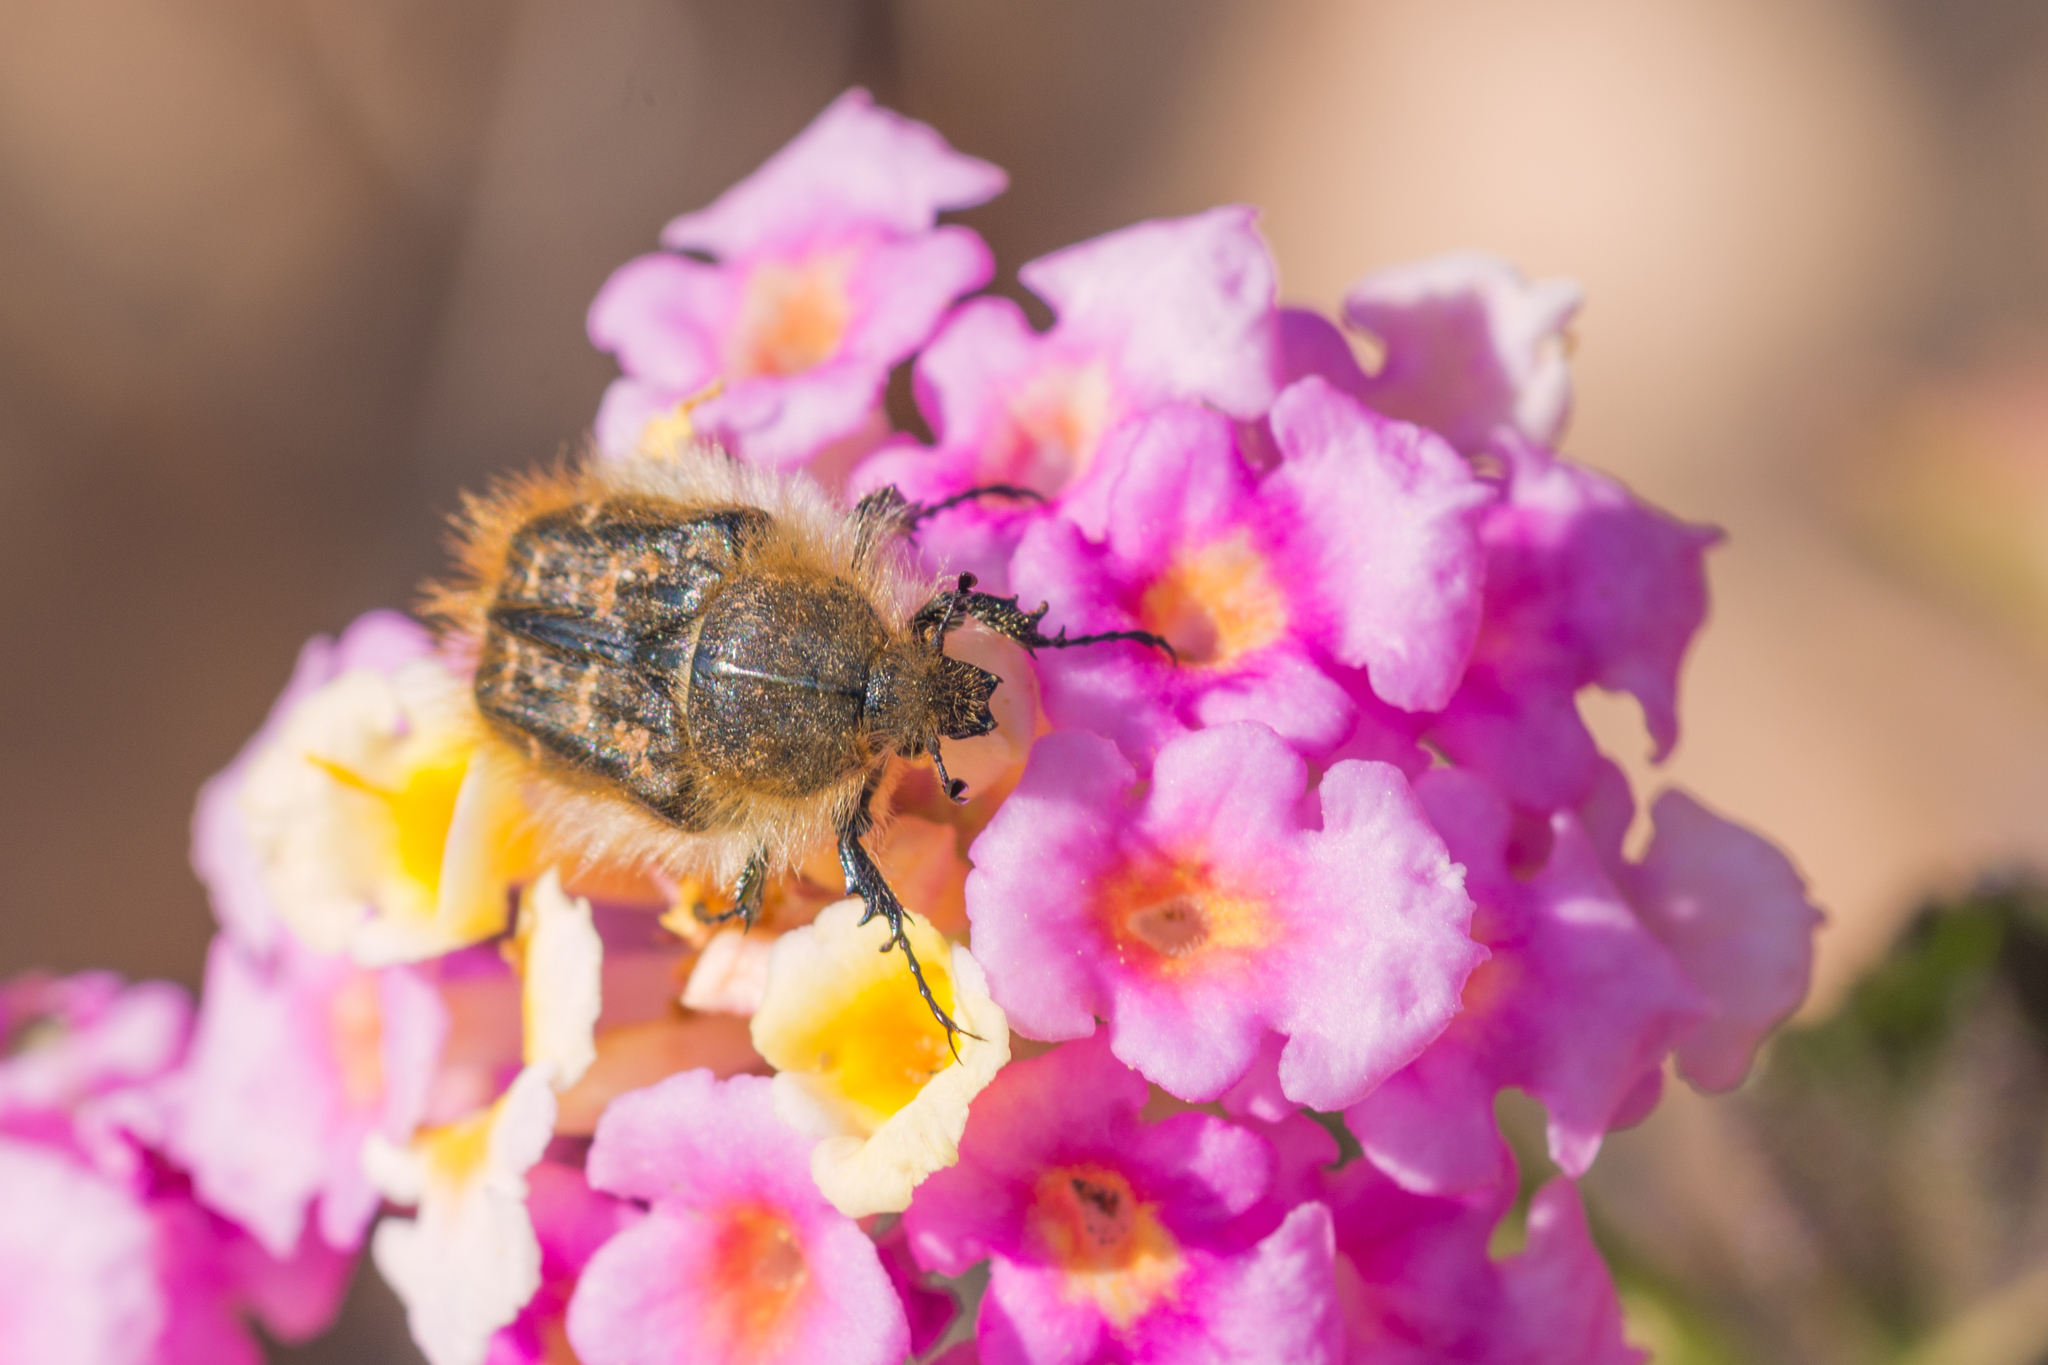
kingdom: Animalia
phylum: Arthropoda
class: Insecta
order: Coleoptera
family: Scarabaeidae
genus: Tropinota
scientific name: Tropinota squalida
